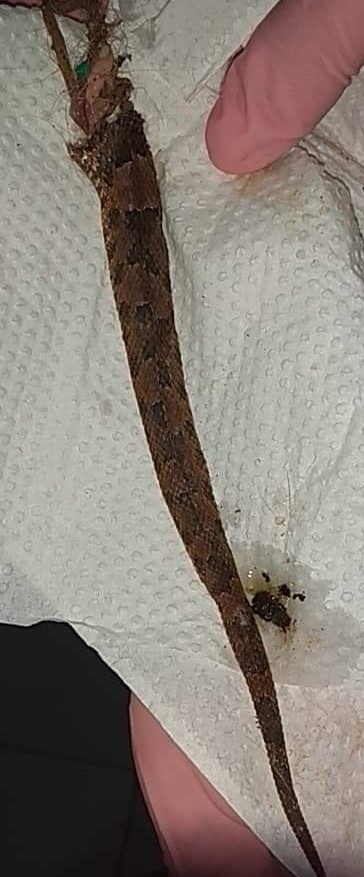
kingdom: Animalia
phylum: Chordata
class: Squamata
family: Viperidae
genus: Porthidium
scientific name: Porthidium yucatanicum
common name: Yucatán hognose viper
